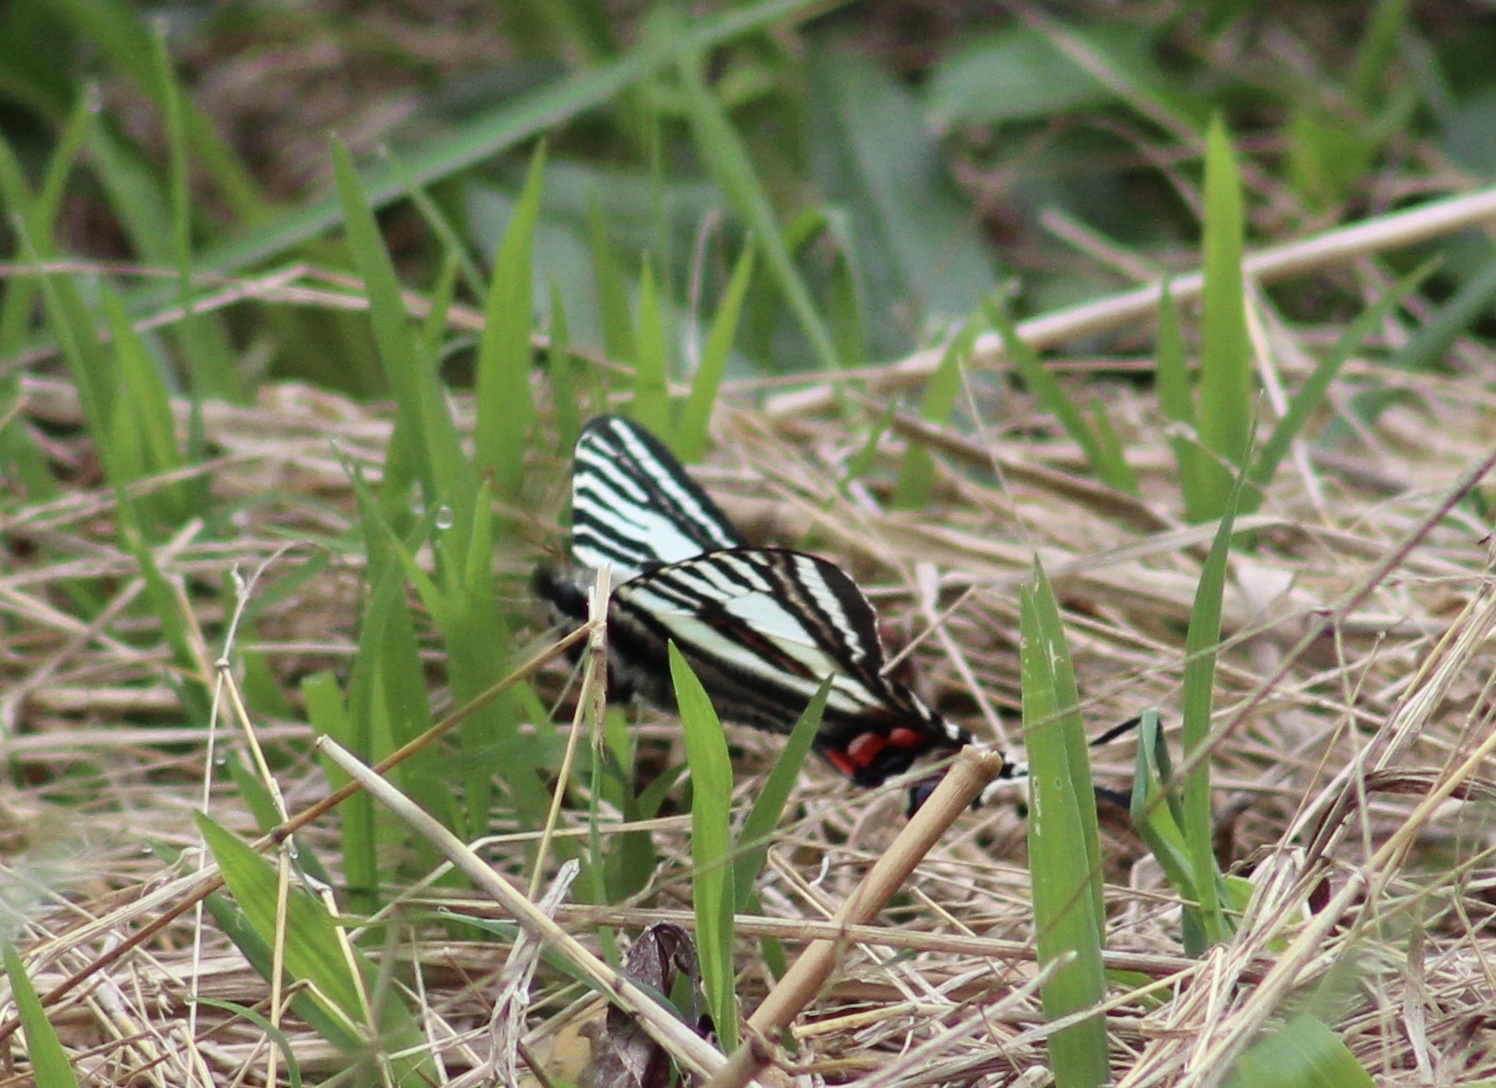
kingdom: Animalia
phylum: Arthropoda
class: Insecta
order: Lepidoptera
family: Papilionidae
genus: Protographium
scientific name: Protographium marcellus
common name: Zebra swallowtail
